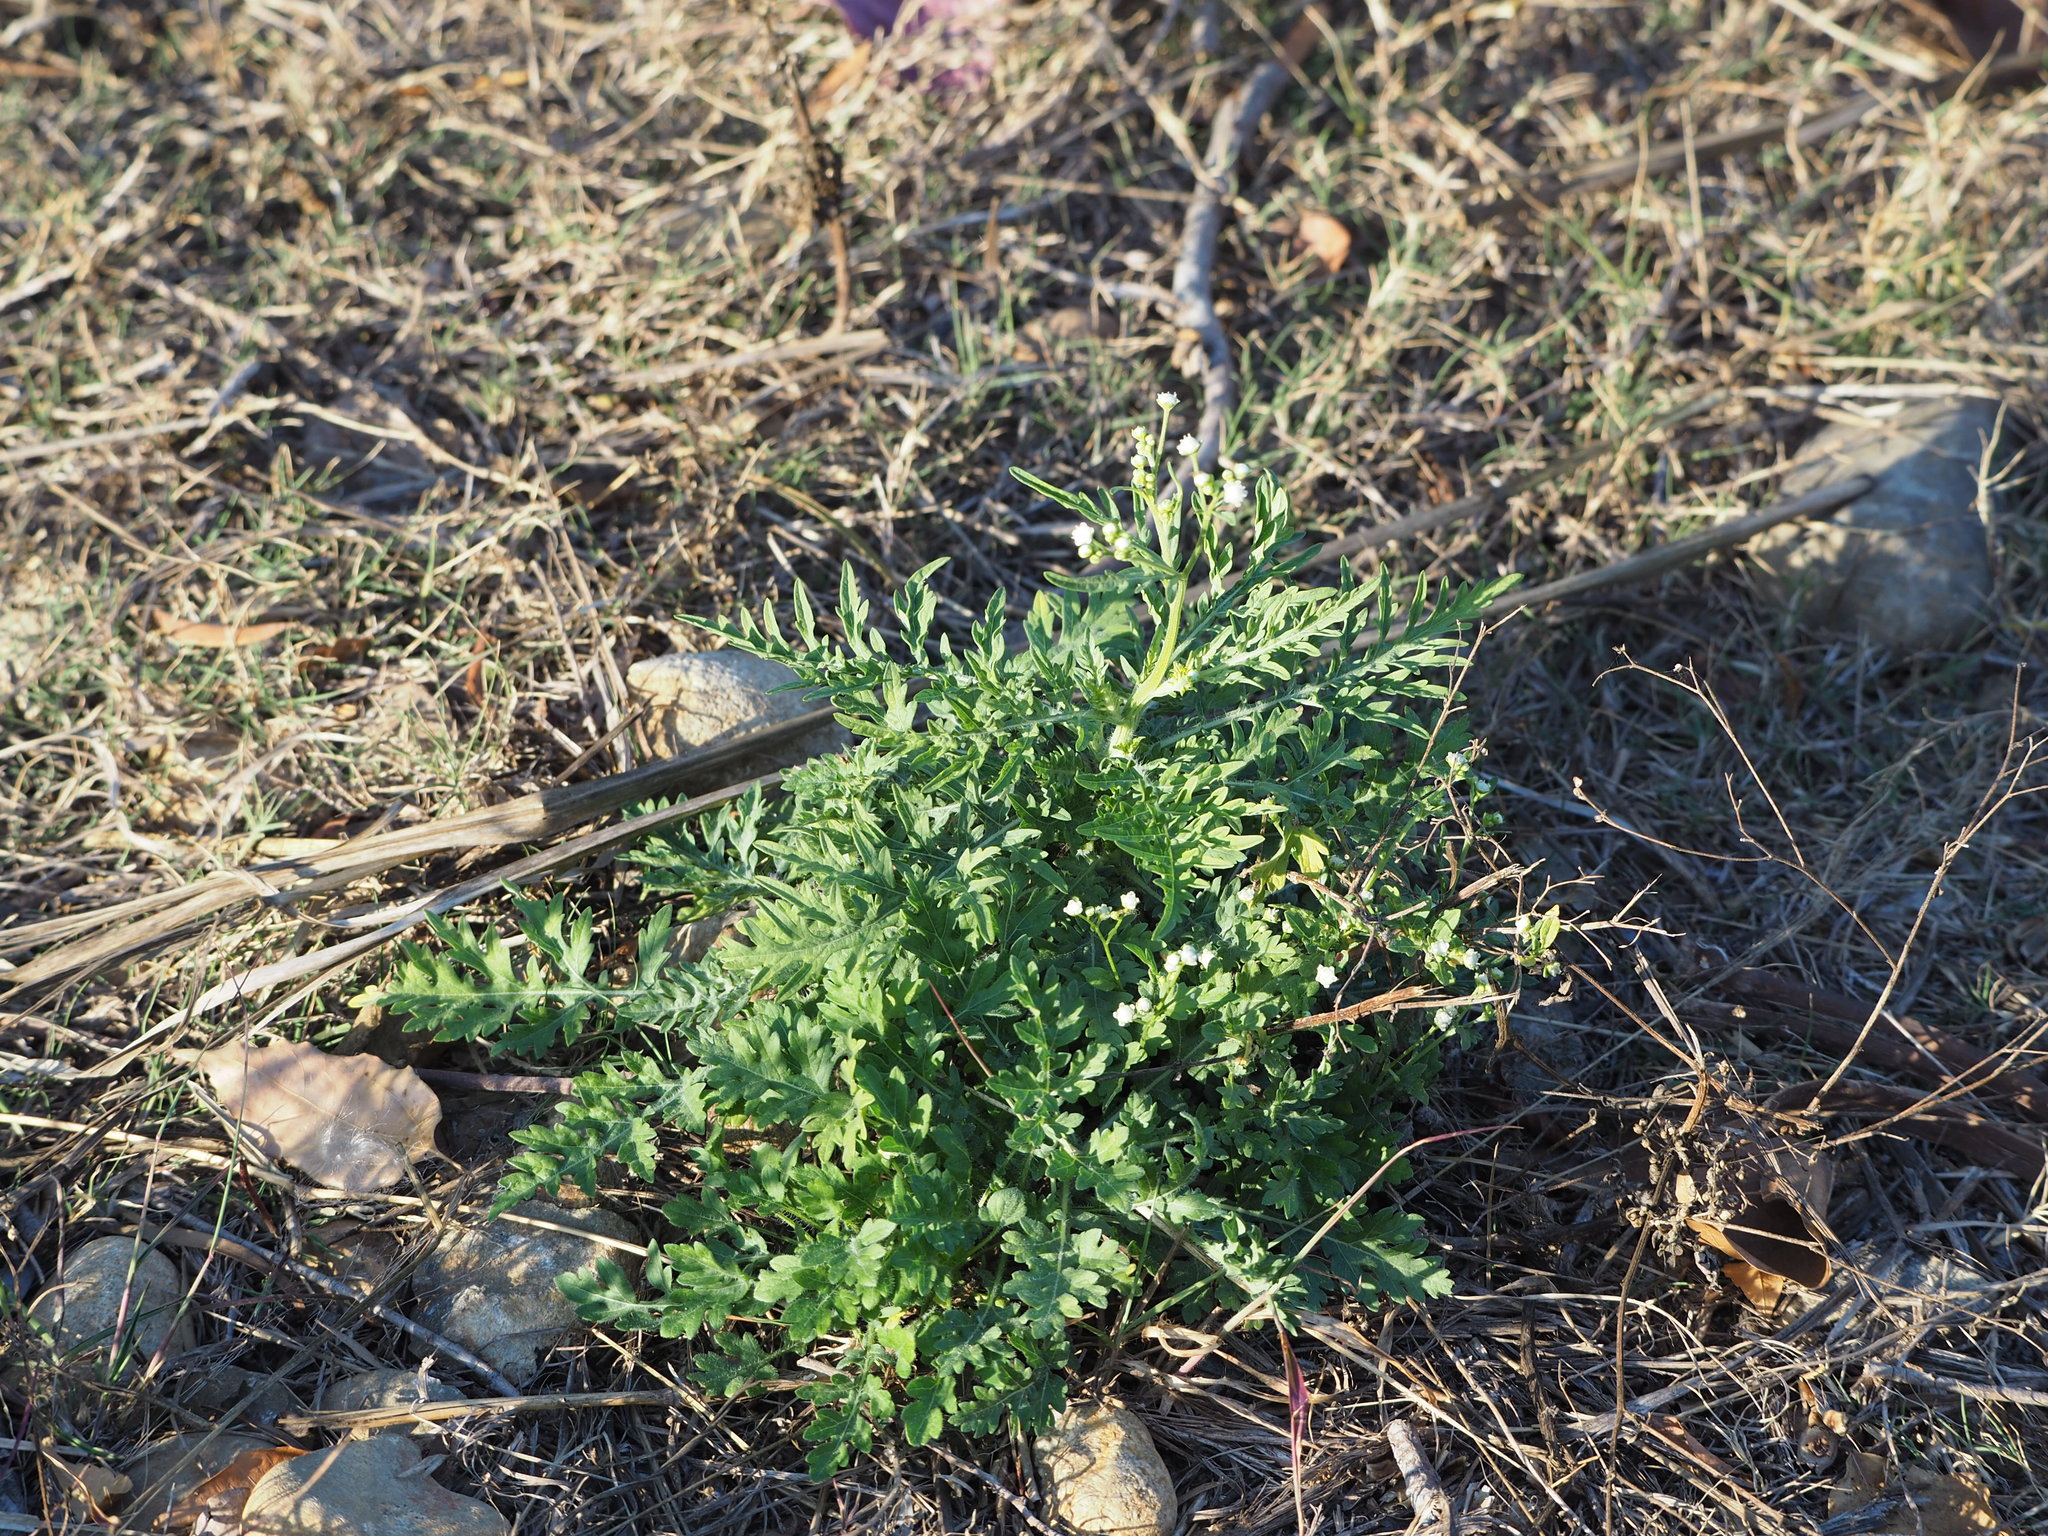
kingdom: Plantae
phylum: Tracheophyta
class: Magnoliopsida
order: Asterales
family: Asteraceae
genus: Parthenium
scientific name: Parthenium hysterophorus
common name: Santa maria feverfew
